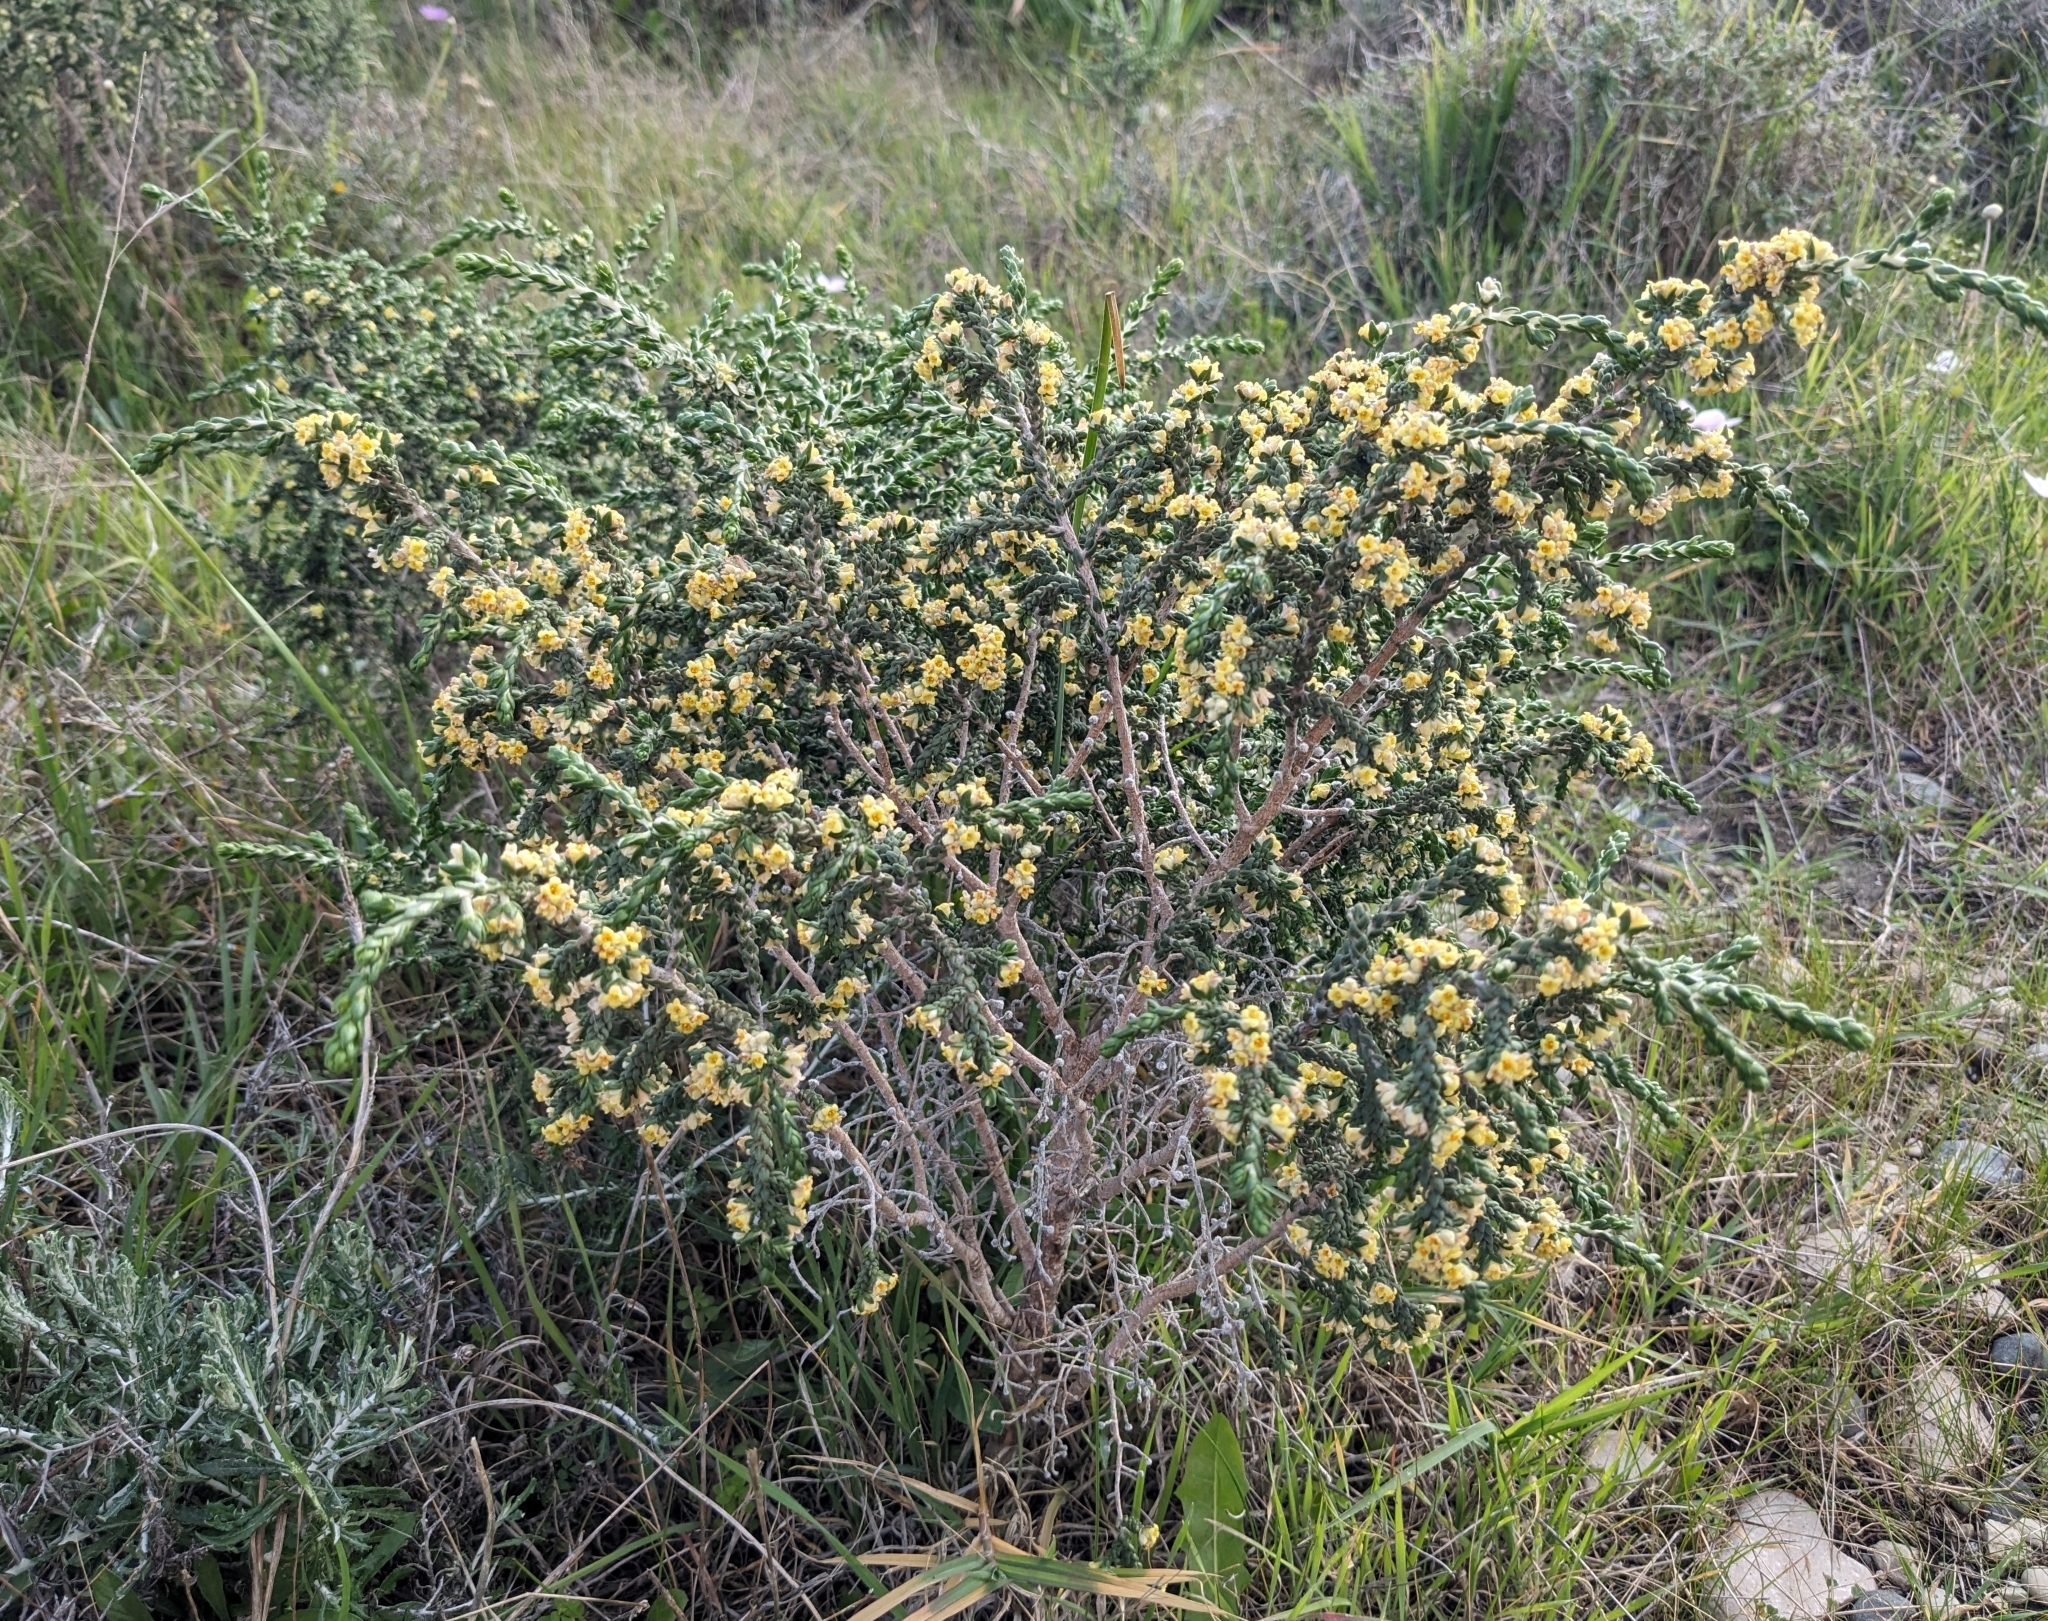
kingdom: Plantae
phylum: Tracheophyta
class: Magnoliopsida
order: Malvales
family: Thymelaeaceae
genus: Thymelaea
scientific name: Thymelaea hirsuta
